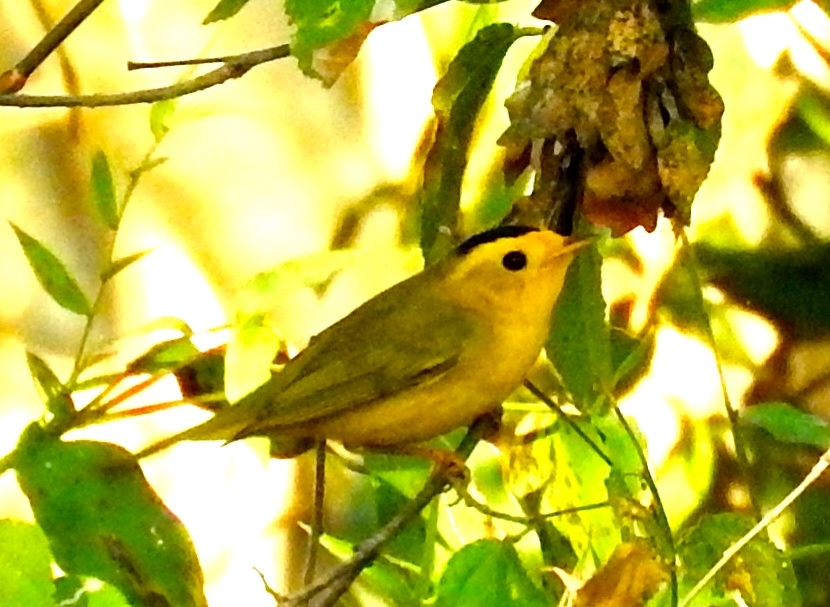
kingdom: Animalia
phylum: Chordata
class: Aves
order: Passeriformes
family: Parulidae
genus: Cardellina
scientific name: Cardellina pusilla
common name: Wilson's warbler
